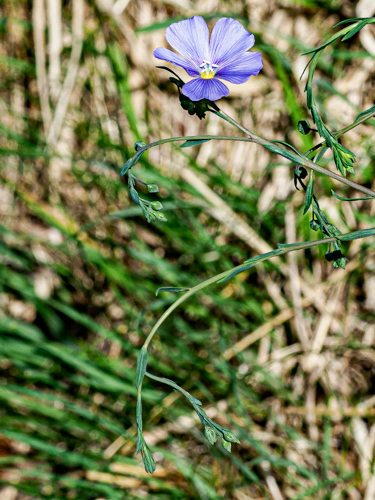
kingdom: Plantae
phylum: Tracheophyta
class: Magnoliopsida
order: Malpighiales
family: Linaceae
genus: Linum
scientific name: Linum austriacum
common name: Austrian flax
